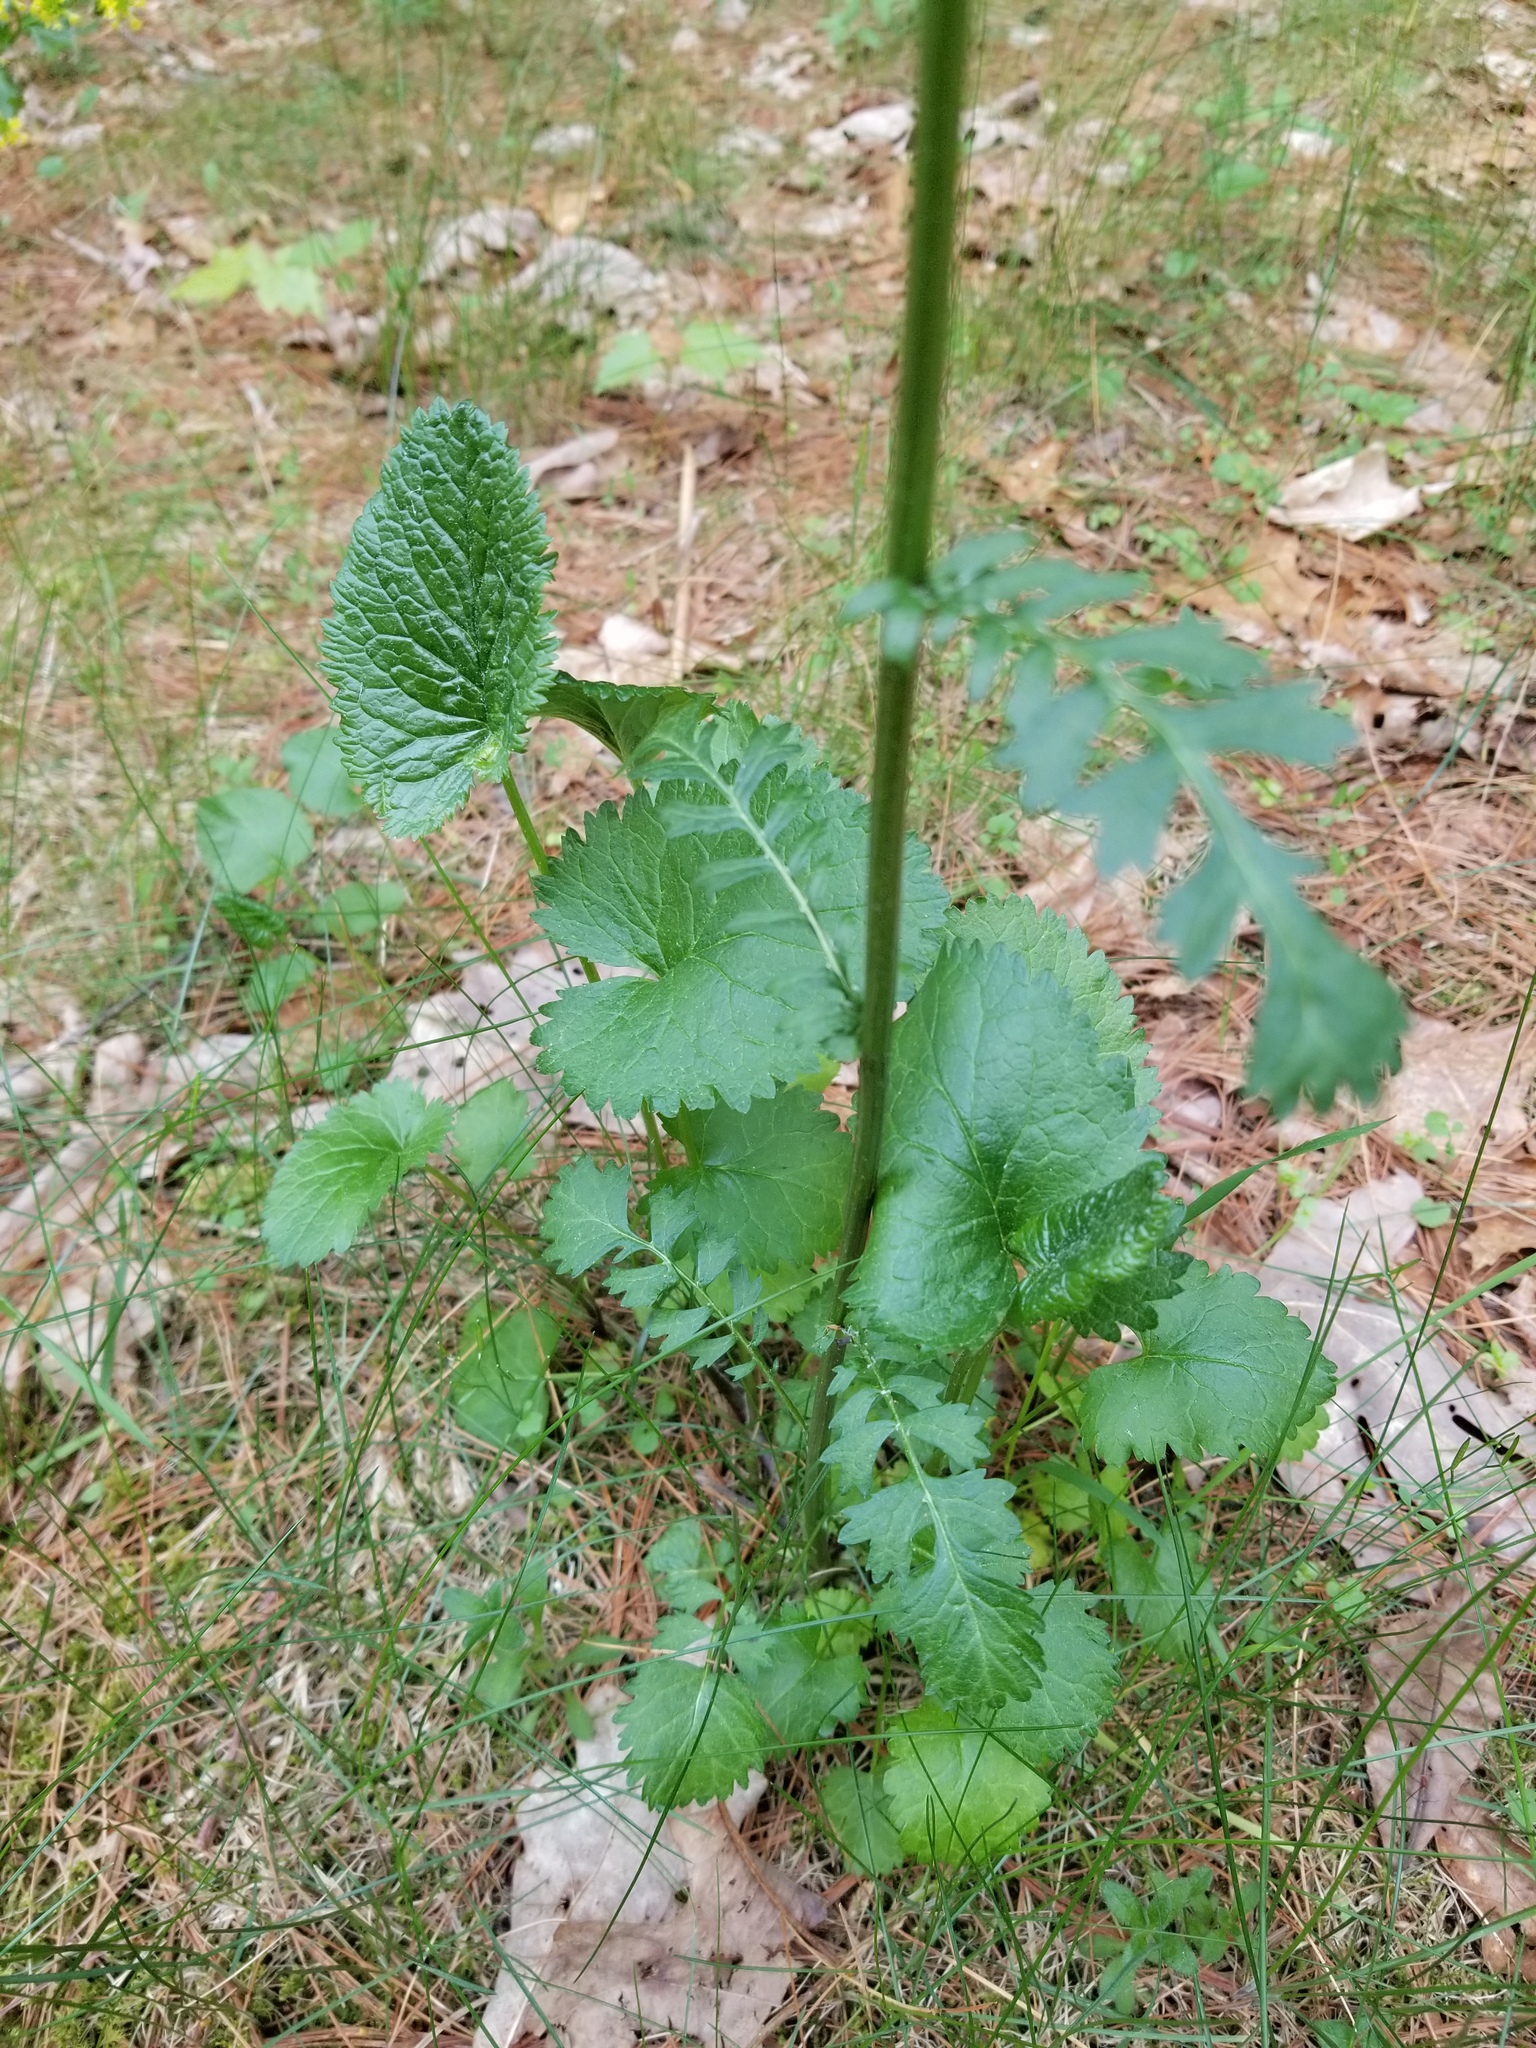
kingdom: Plantae
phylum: Tracheophyta
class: Magnoliopsida
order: Asterales
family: Asteraceae
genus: Packera
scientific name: Packera aurea
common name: Golden groundsel
